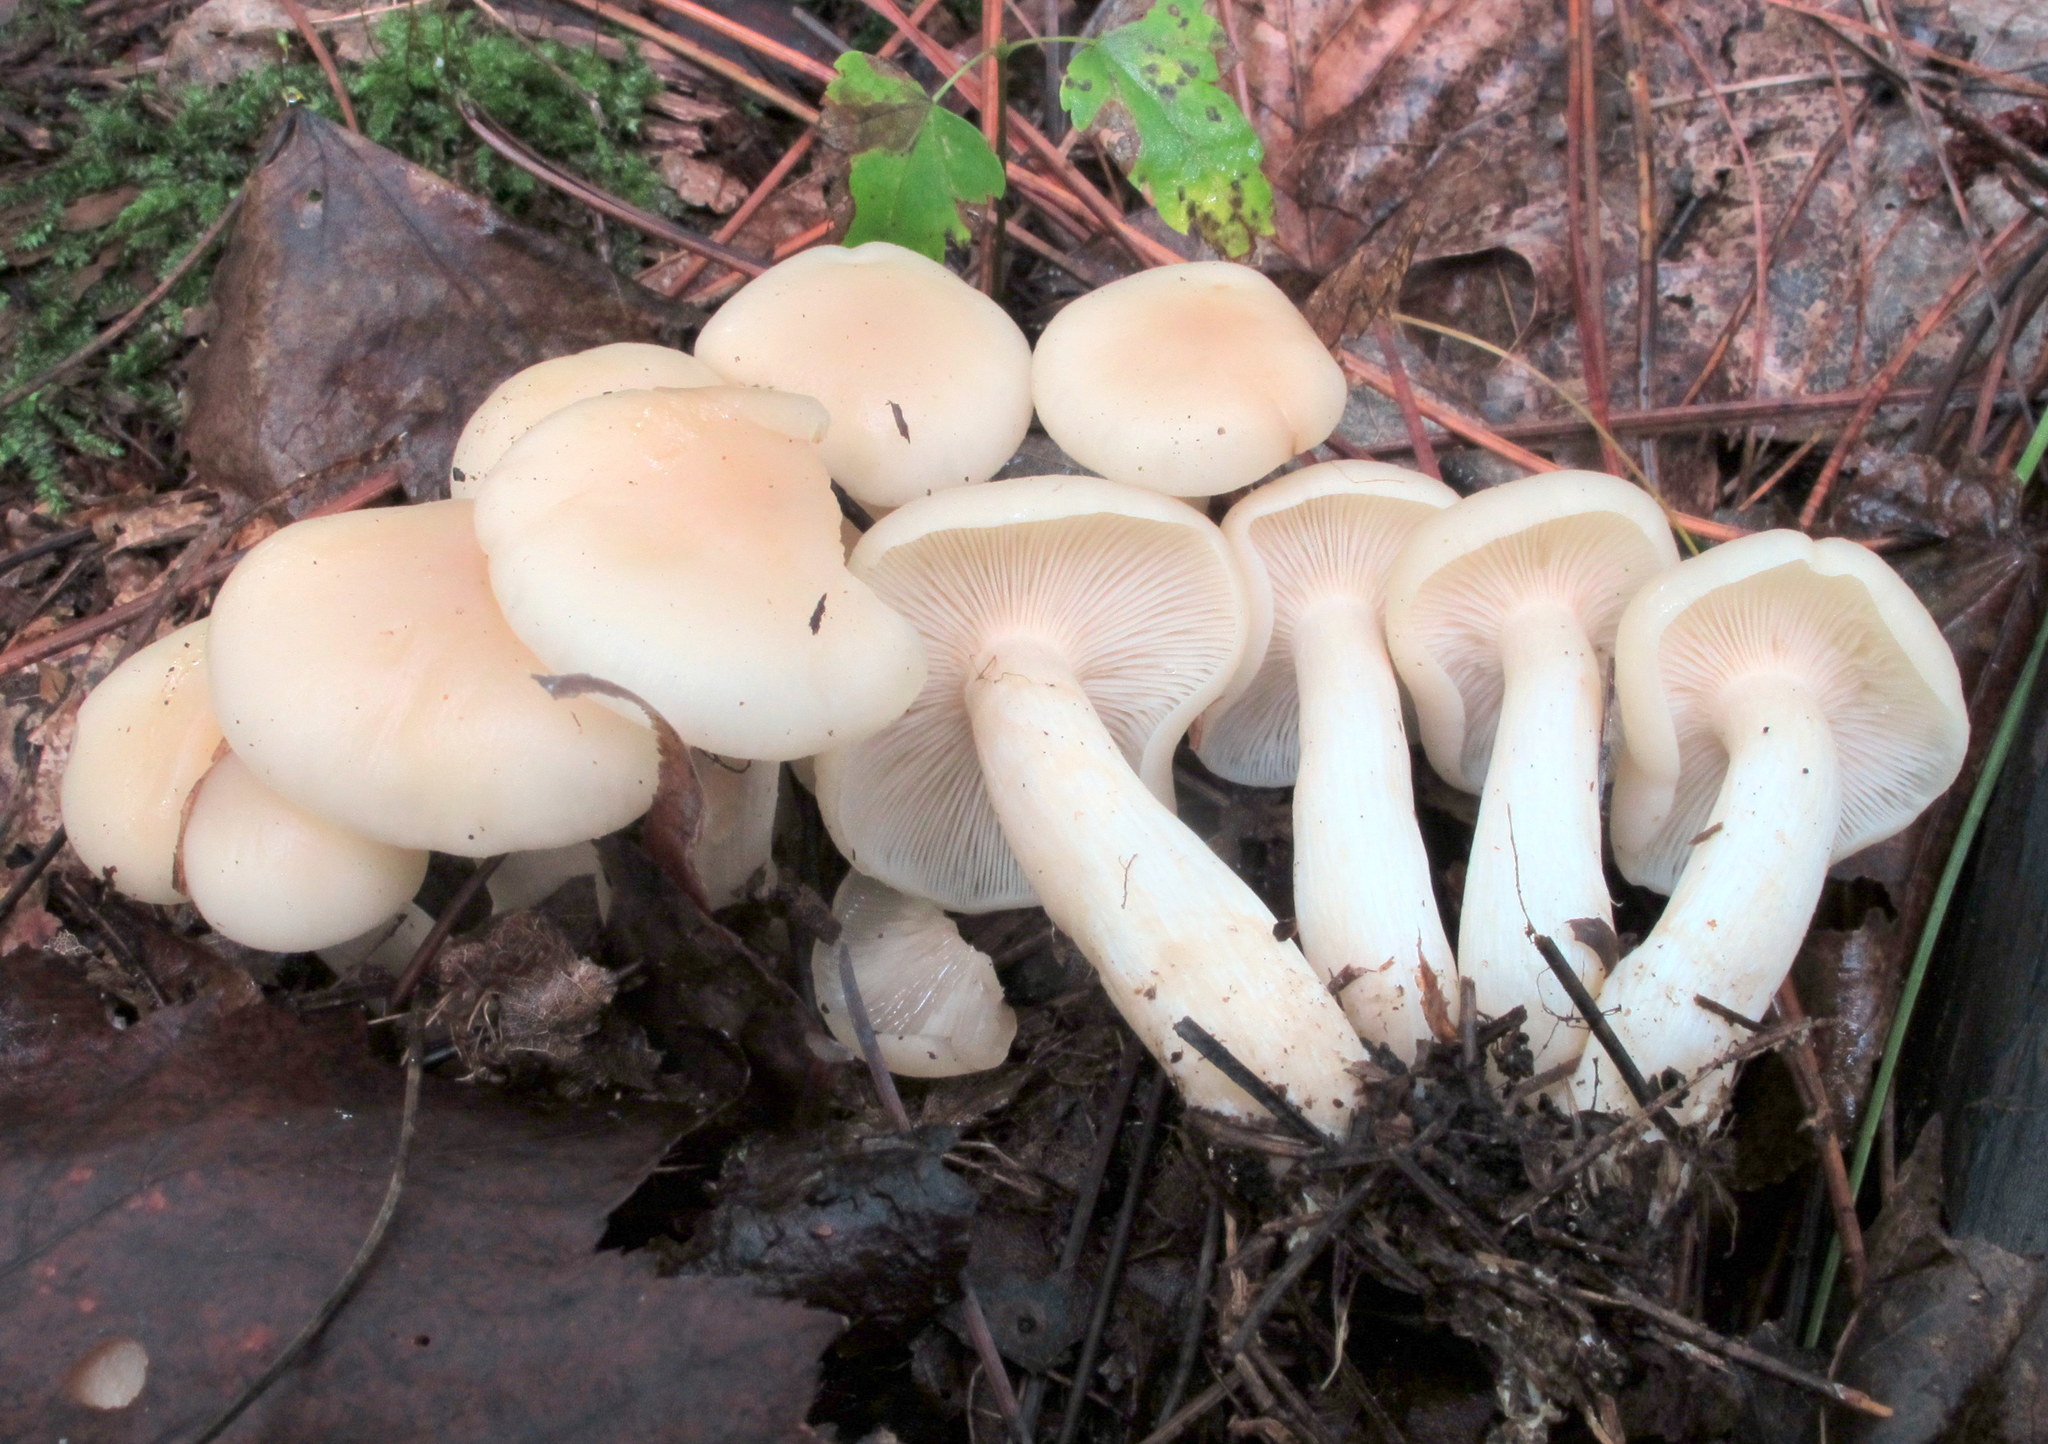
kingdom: Fungi
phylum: Basidiomycota
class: Agaricomycetes
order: Agaricales
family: Tricholomataceae
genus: Lepista
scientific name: Lepista subconnexa
